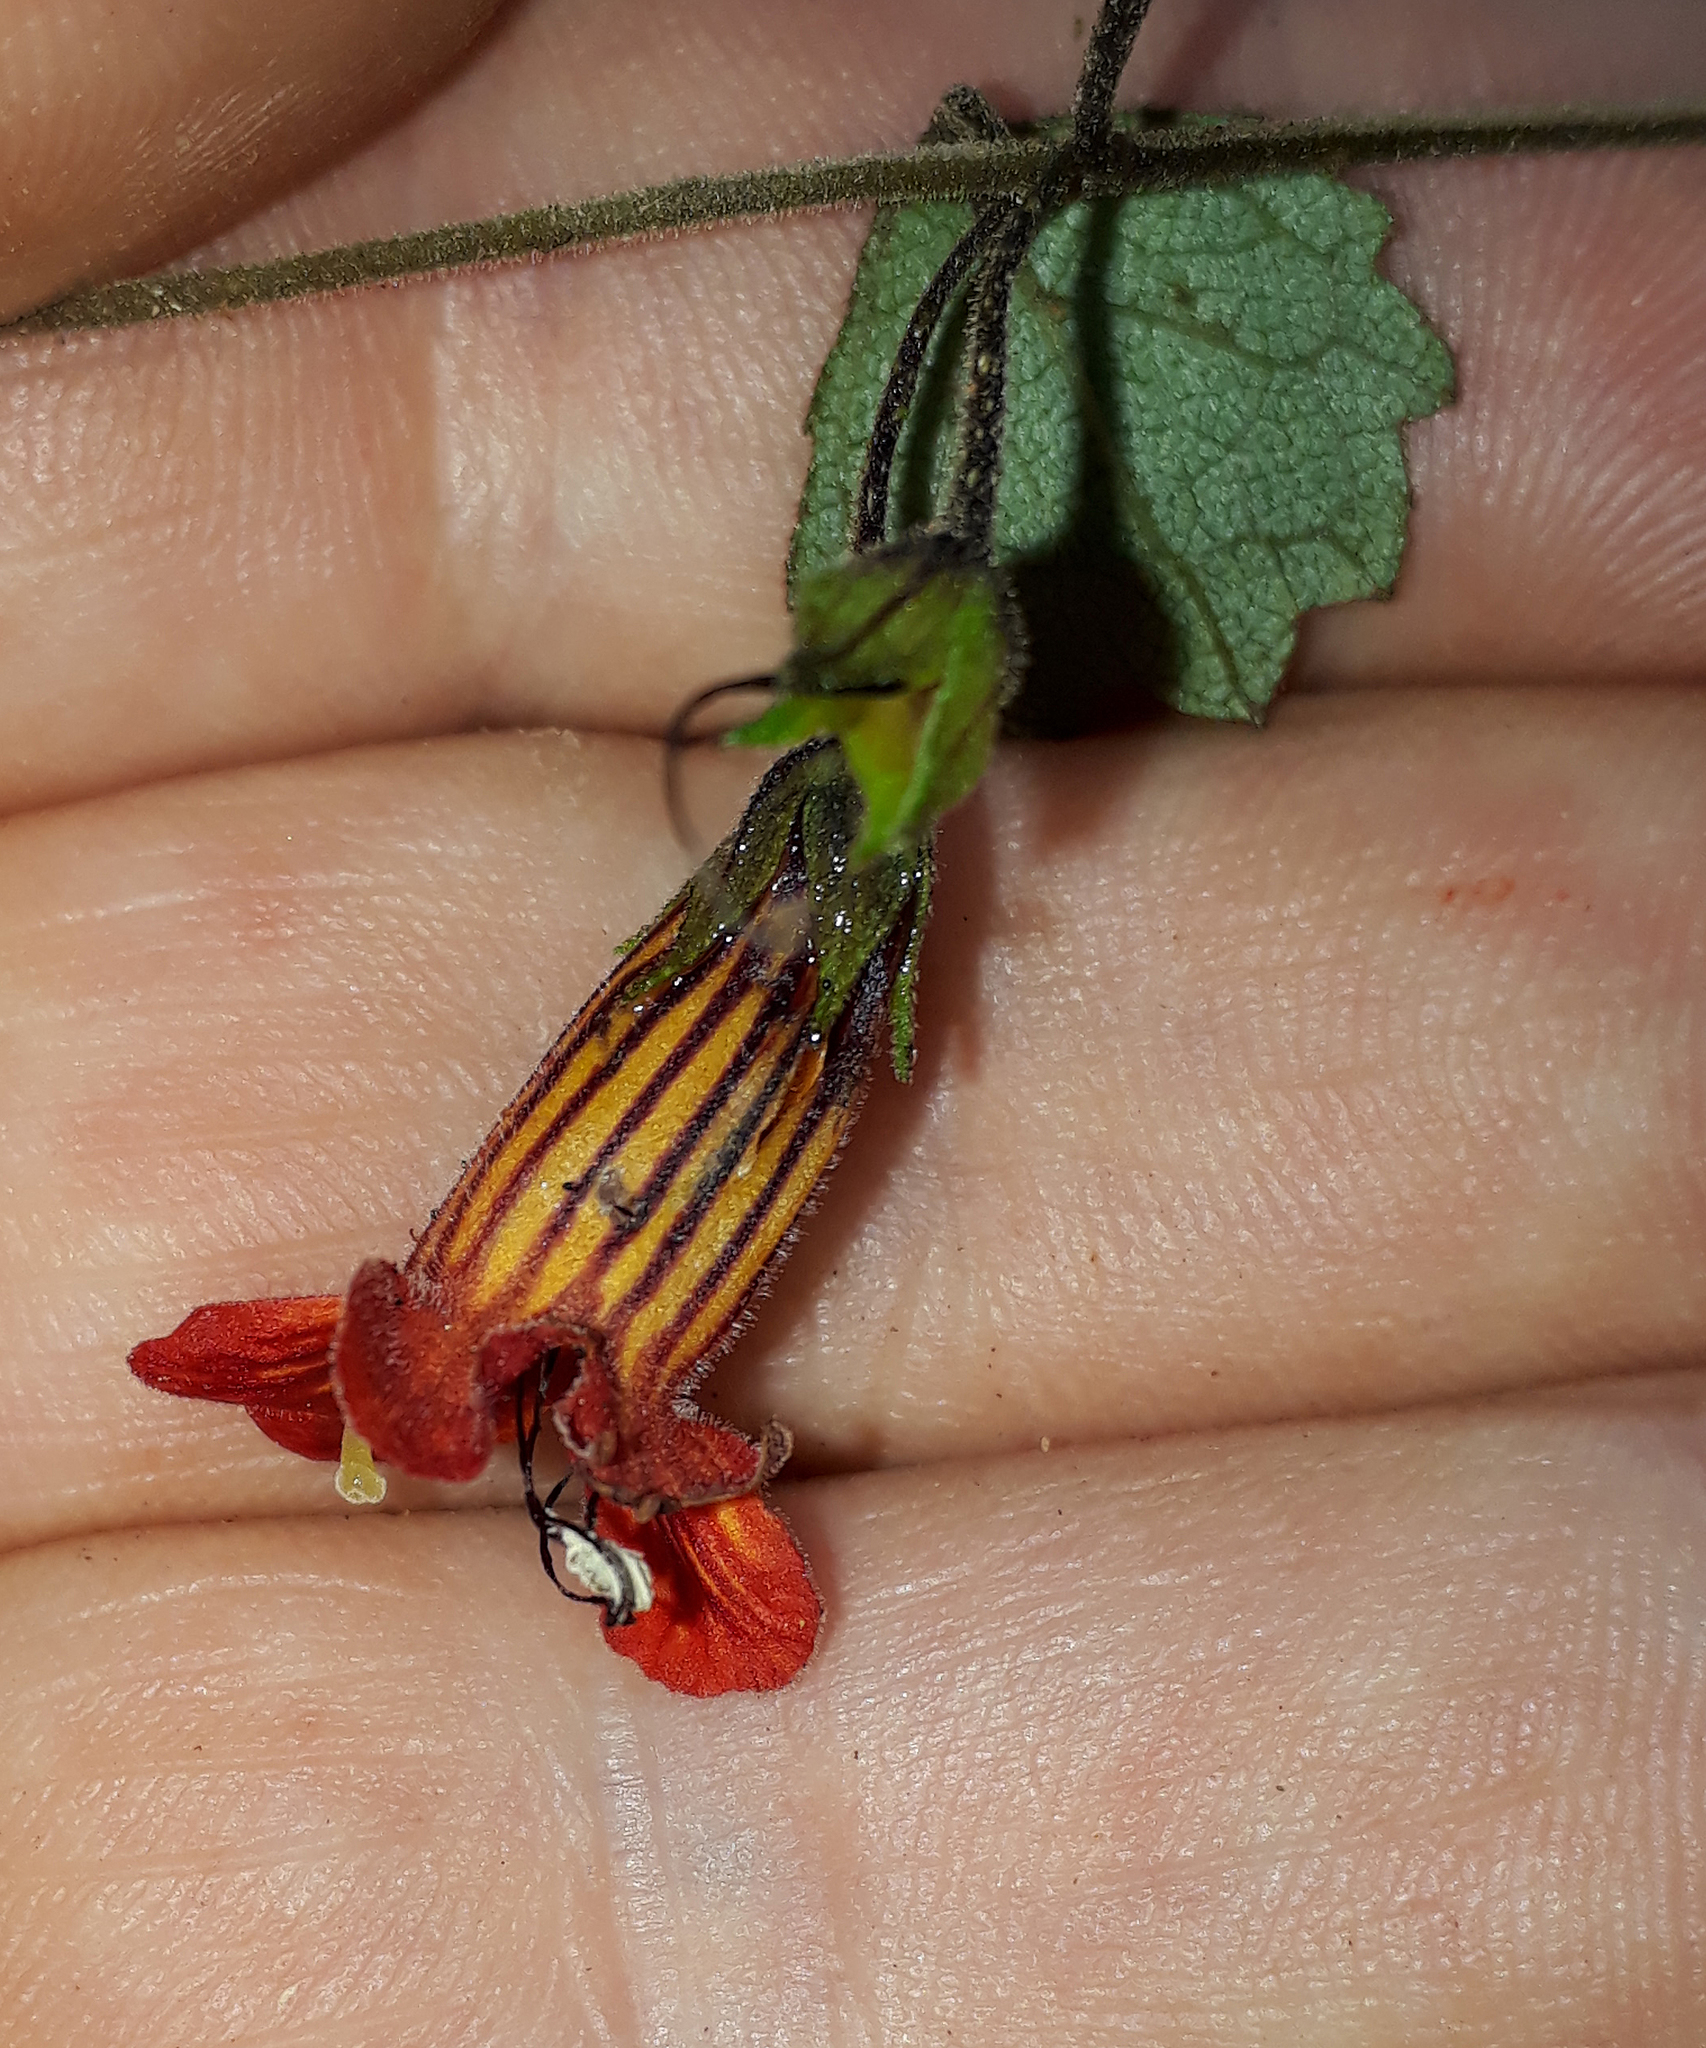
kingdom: Plantae
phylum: Tracheophyta
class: Magnoliopsida
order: Lamiales
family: Gesneriaceae
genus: Rhabdothamnus
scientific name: Rhabdothamnus solandri
